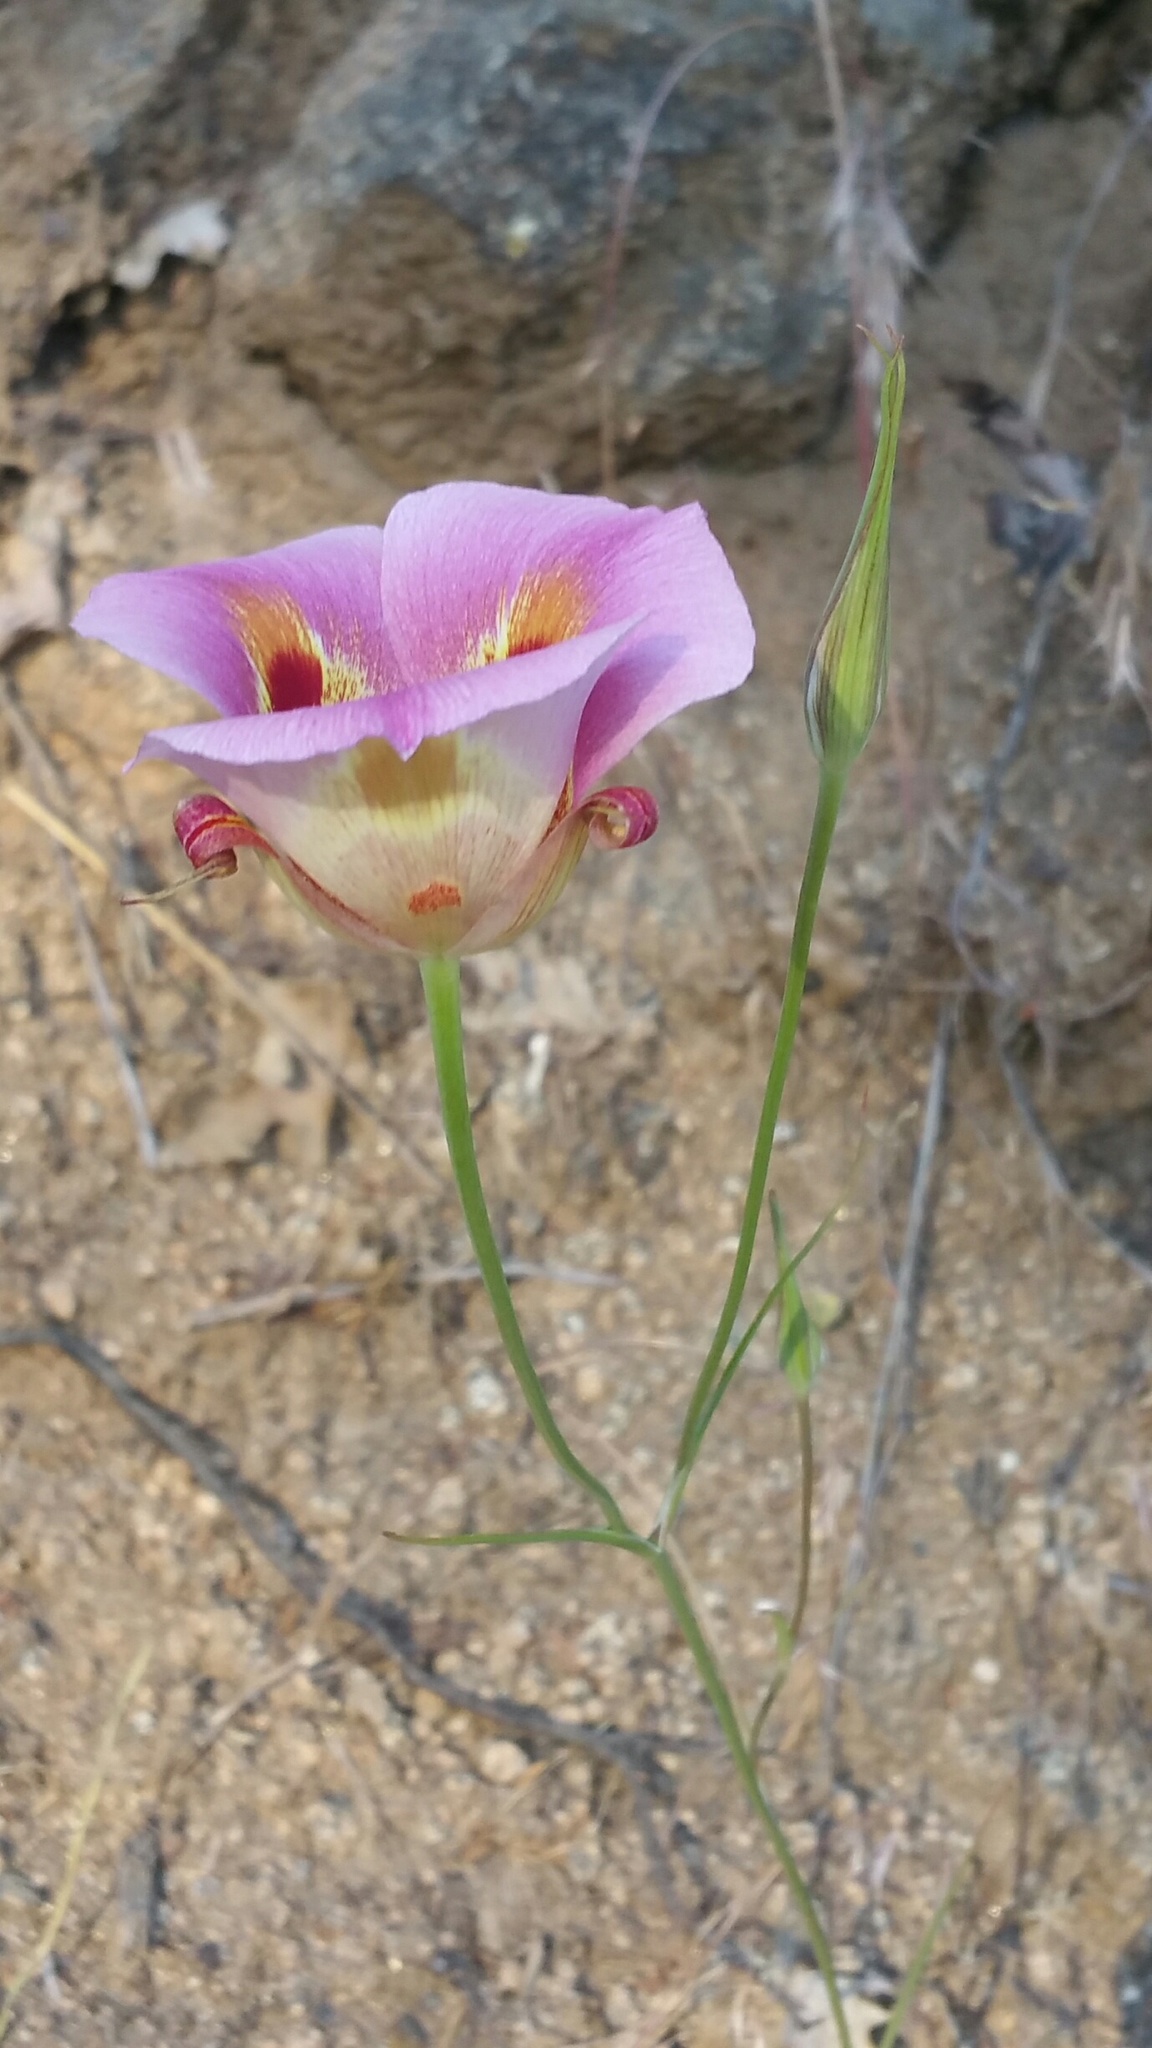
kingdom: Plantae
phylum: Tracheophyta
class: Liliopsida
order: Liliales
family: Liliaceae
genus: Calochortus
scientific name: Calochortus venustus
